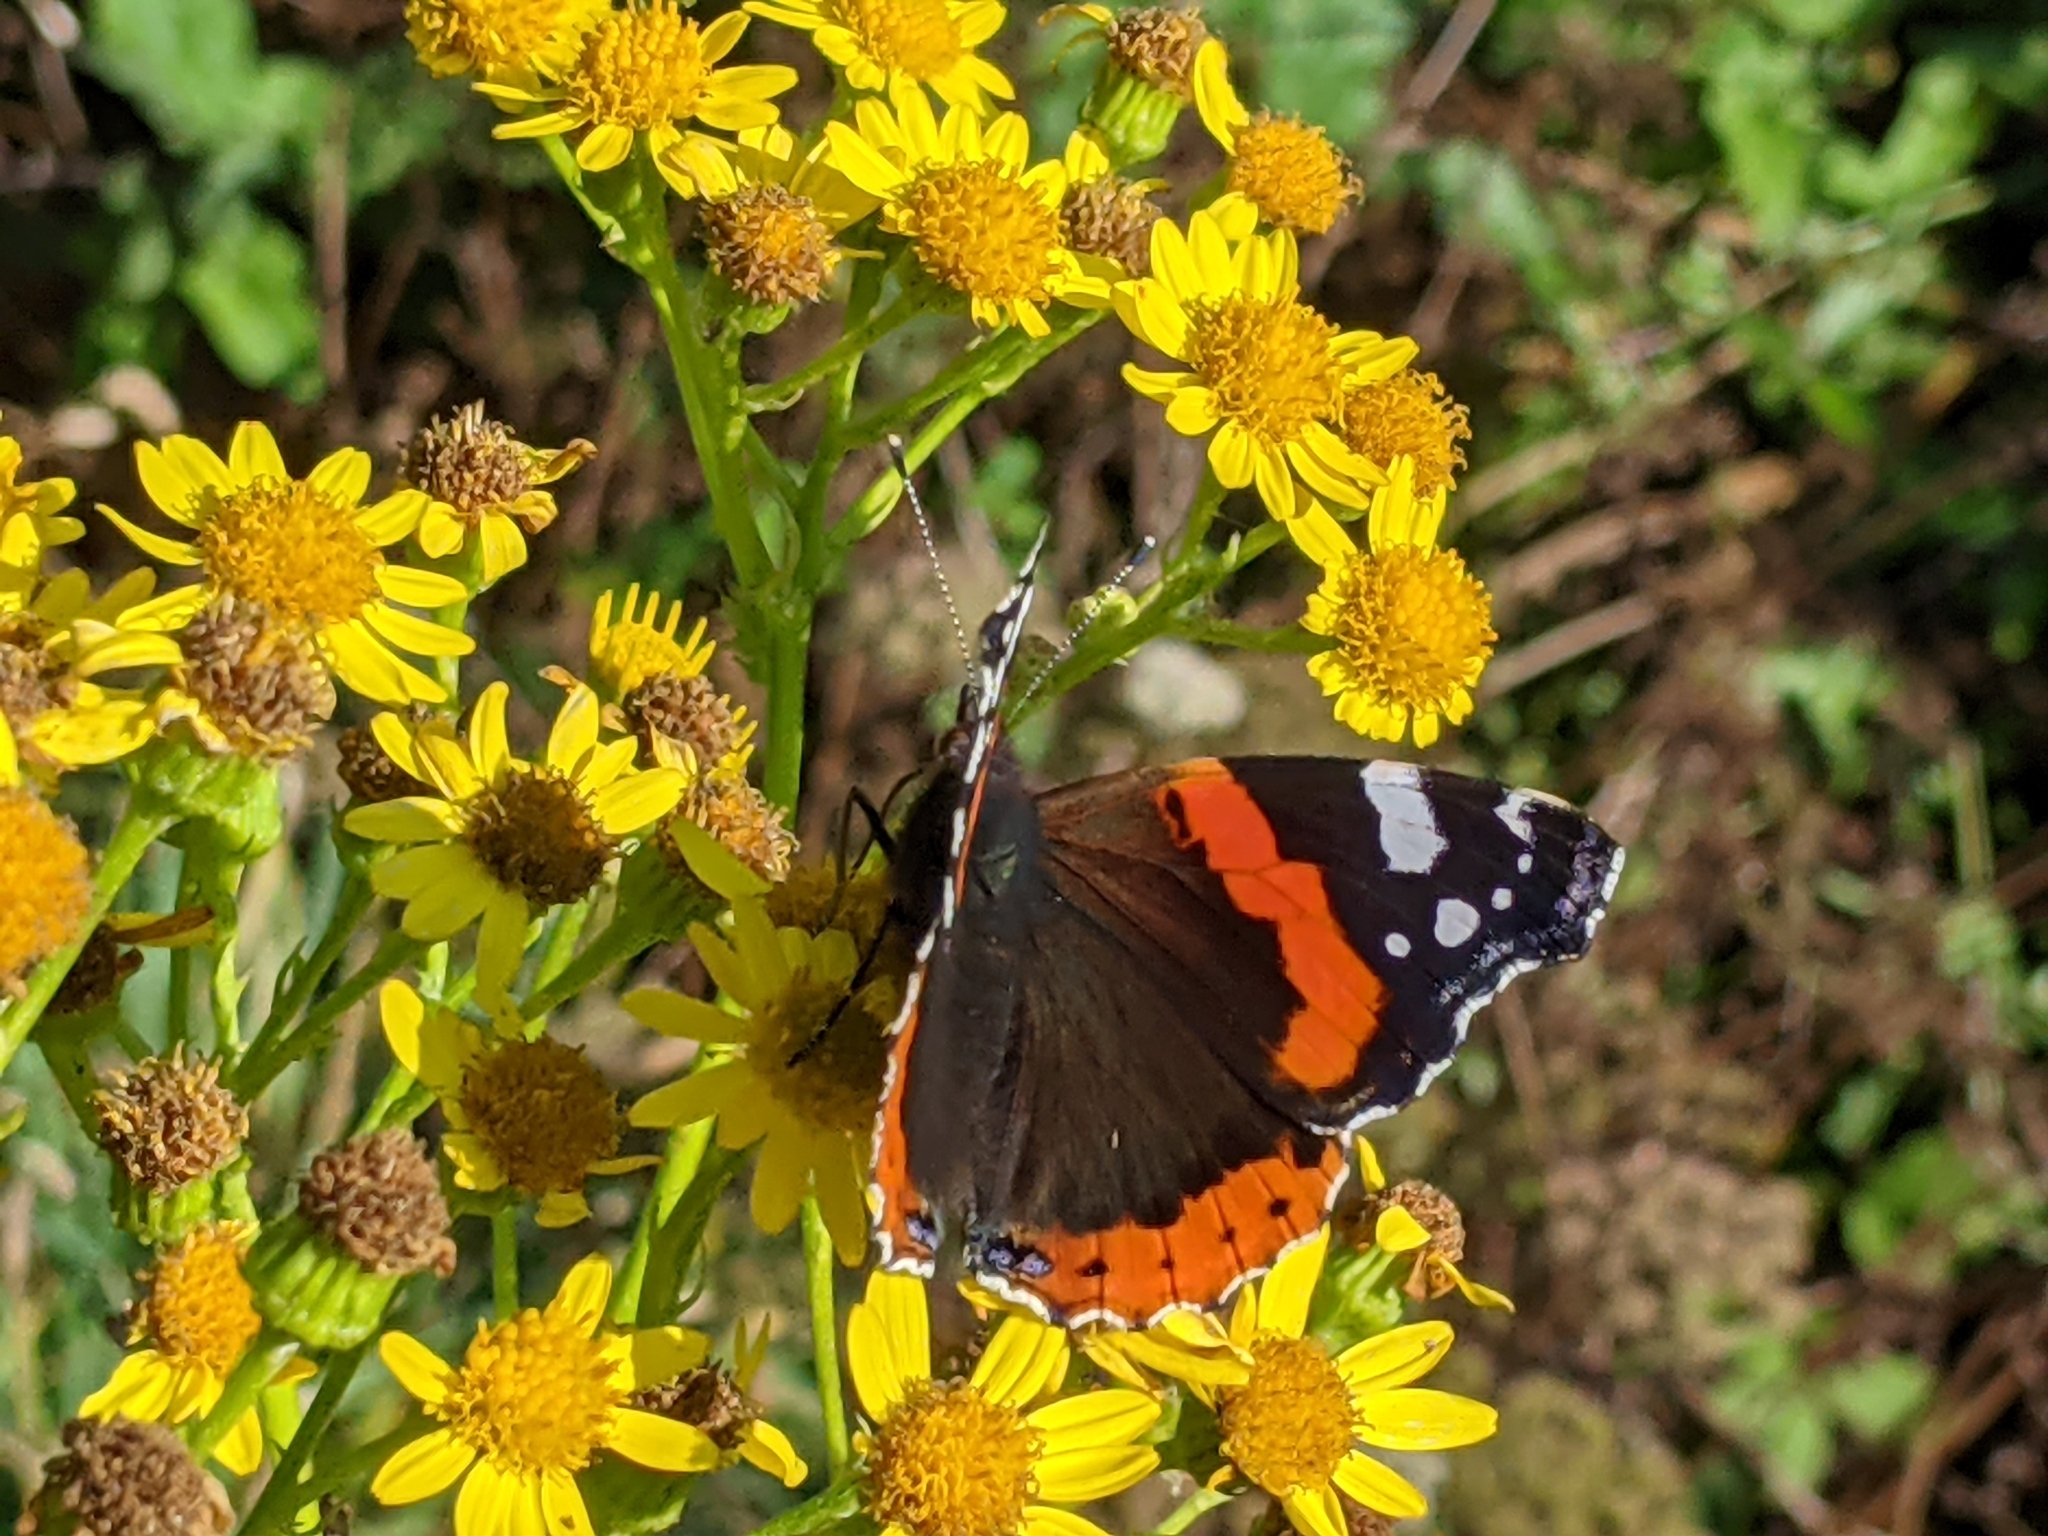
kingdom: Animalia
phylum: Arthropoda
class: Insecta
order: Lepidoptera
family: Nymphalidae
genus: Vanessa
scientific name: Vanessa atalanta
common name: Red admiral
